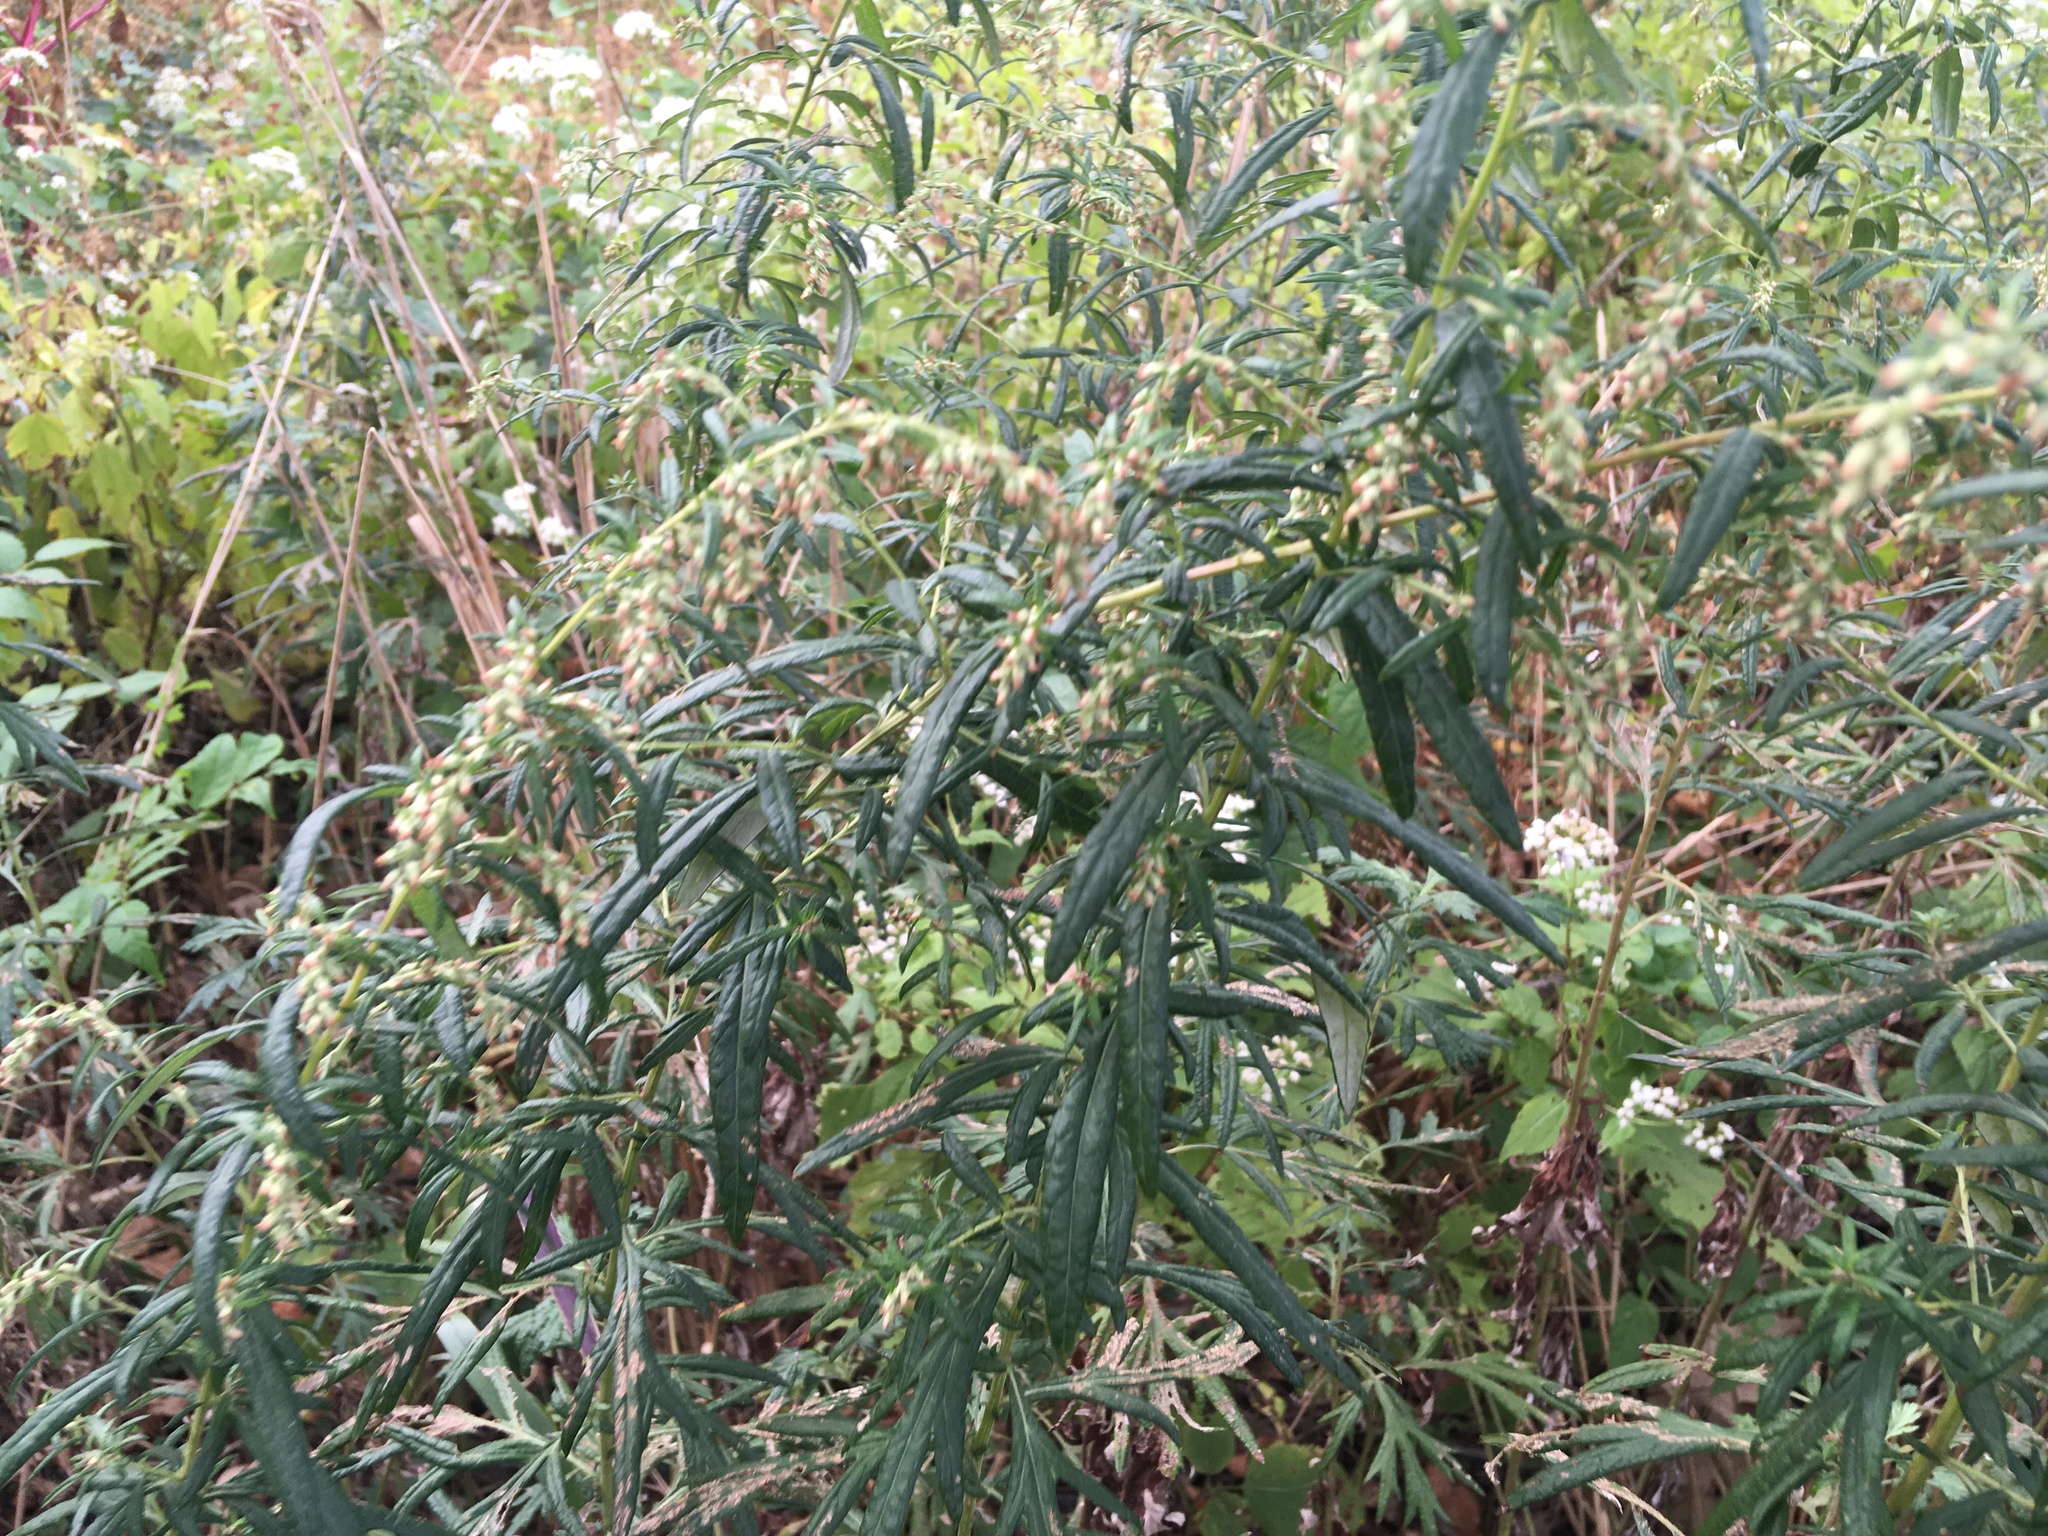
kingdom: Plantae
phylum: Tracheophyta
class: Magnoliopsida
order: Asterales
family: Asteraceae
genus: Artemisia
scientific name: Artemisia vulgaris
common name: Mugwort
